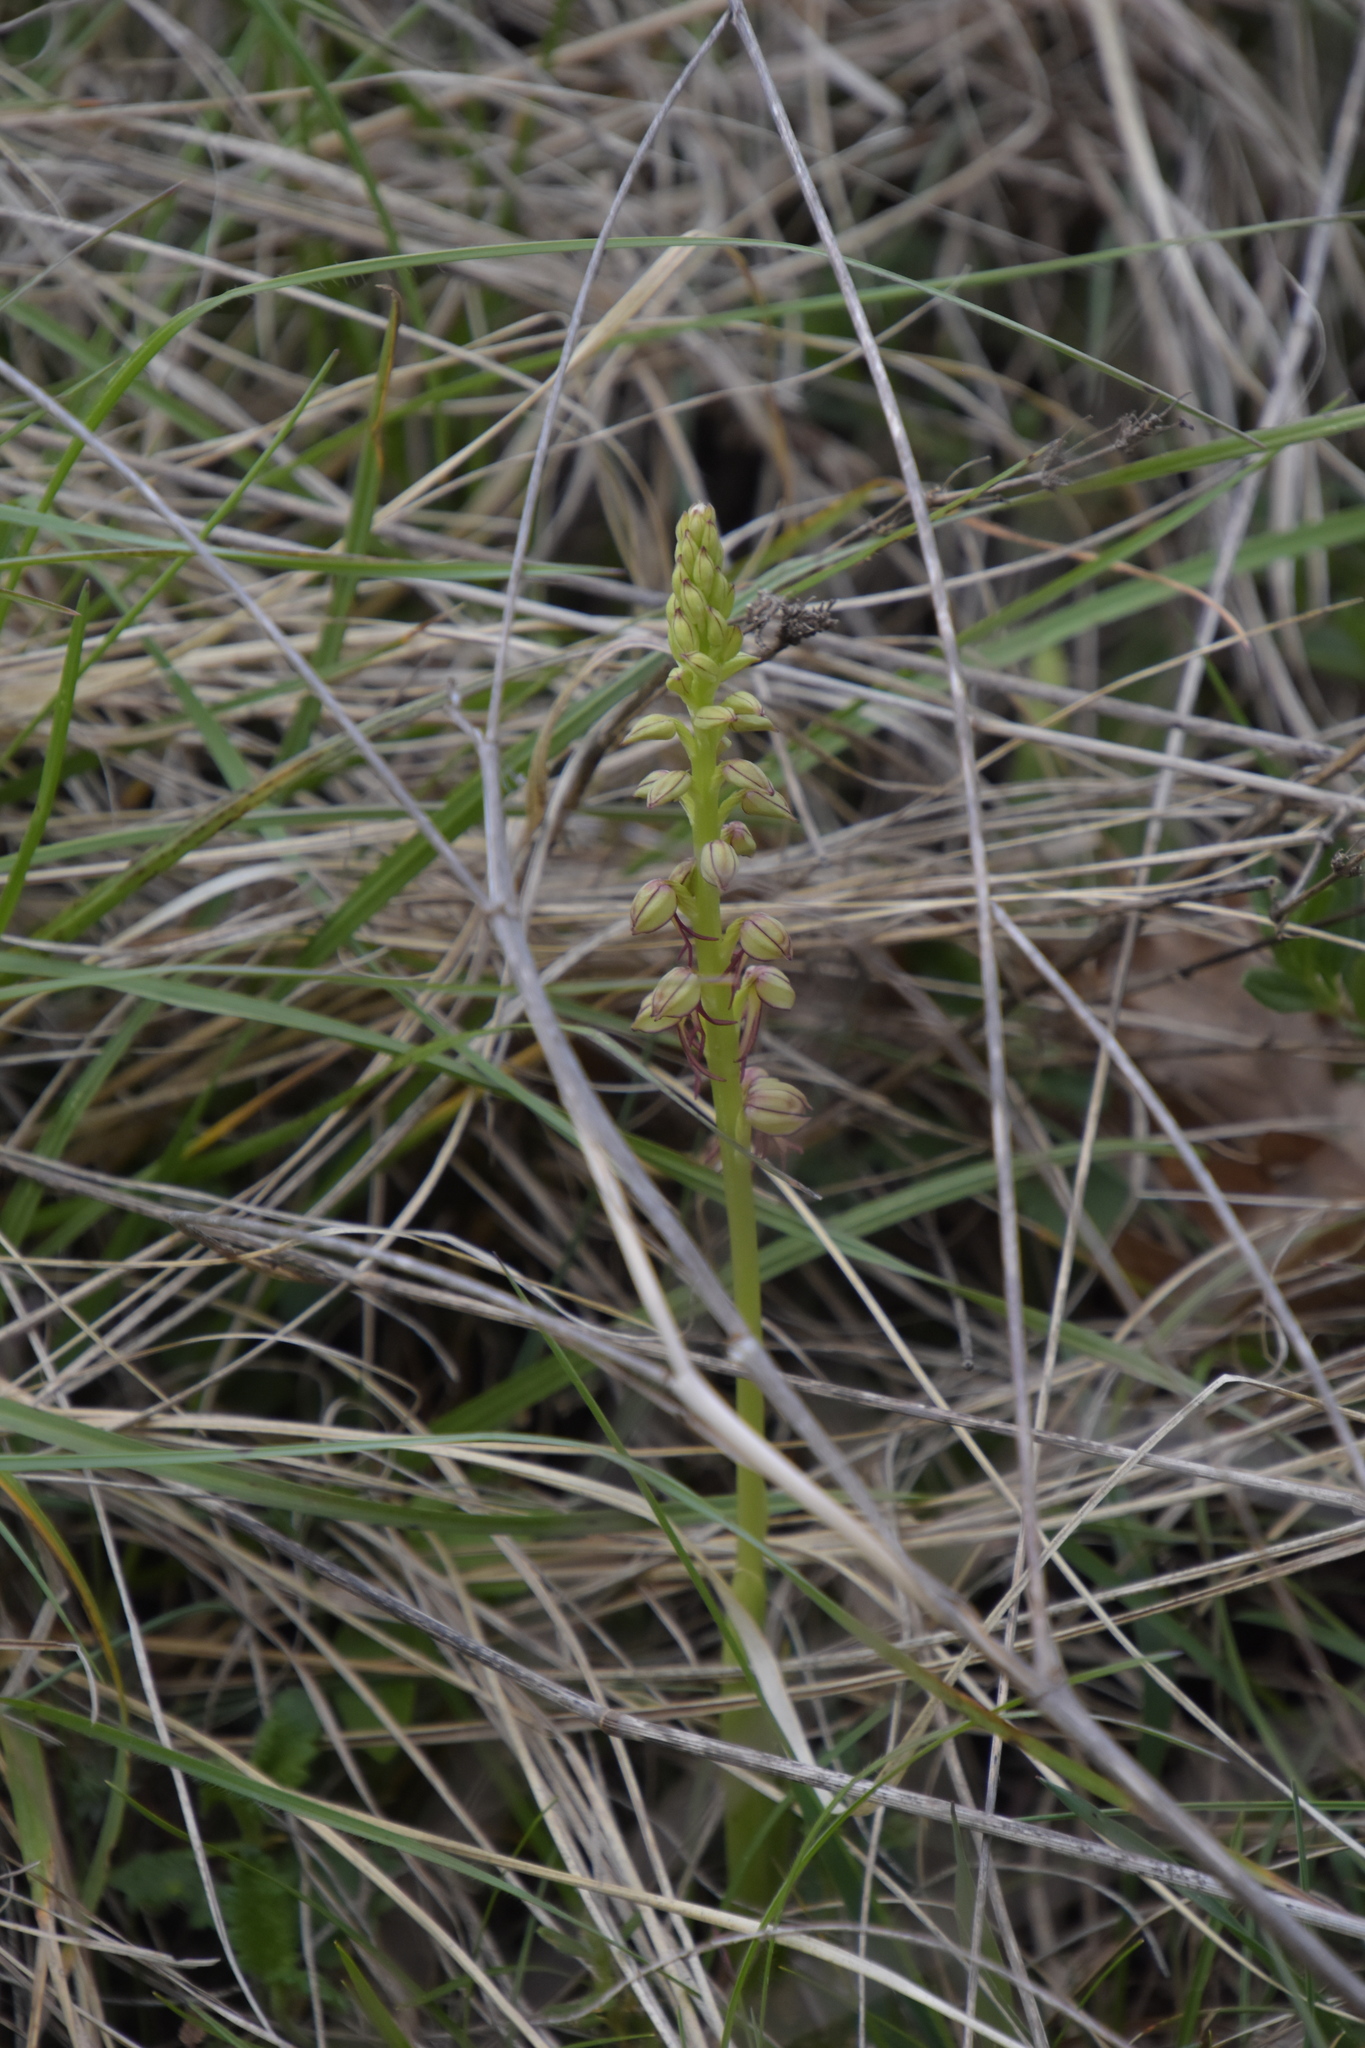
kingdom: Plantae
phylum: Tracheophyta
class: Liliopsida
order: Asparagales
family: Orchidaceae
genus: Orchis
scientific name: Orchis anthropophora
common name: Man orchid
